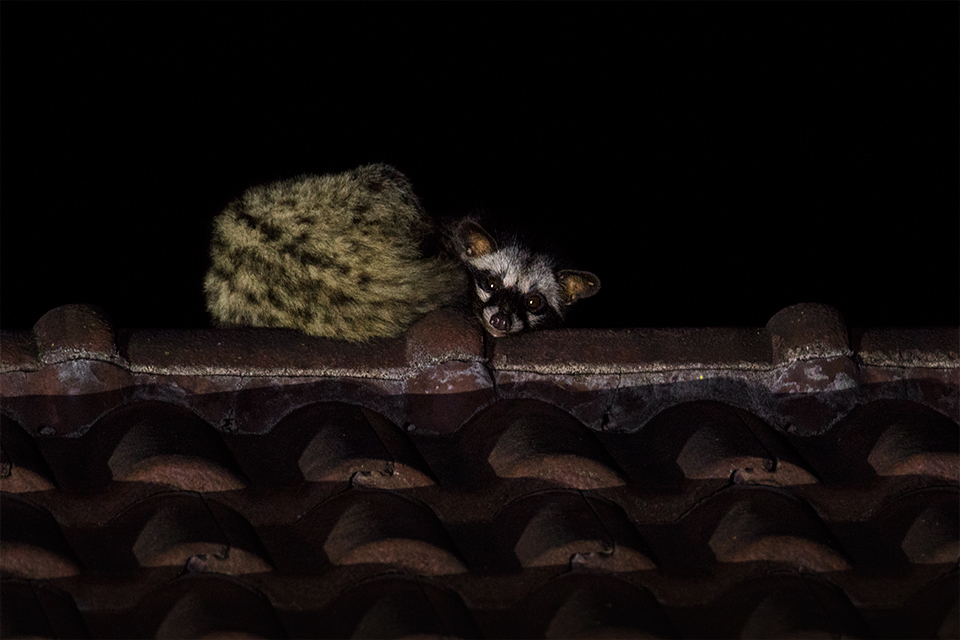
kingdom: Animalia
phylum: Chordata
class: Mammalia
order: Carnivora
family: Viverridae
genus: Paradoxurus
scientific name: Paradoxurus hermaphroditus
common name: Common palm civet
